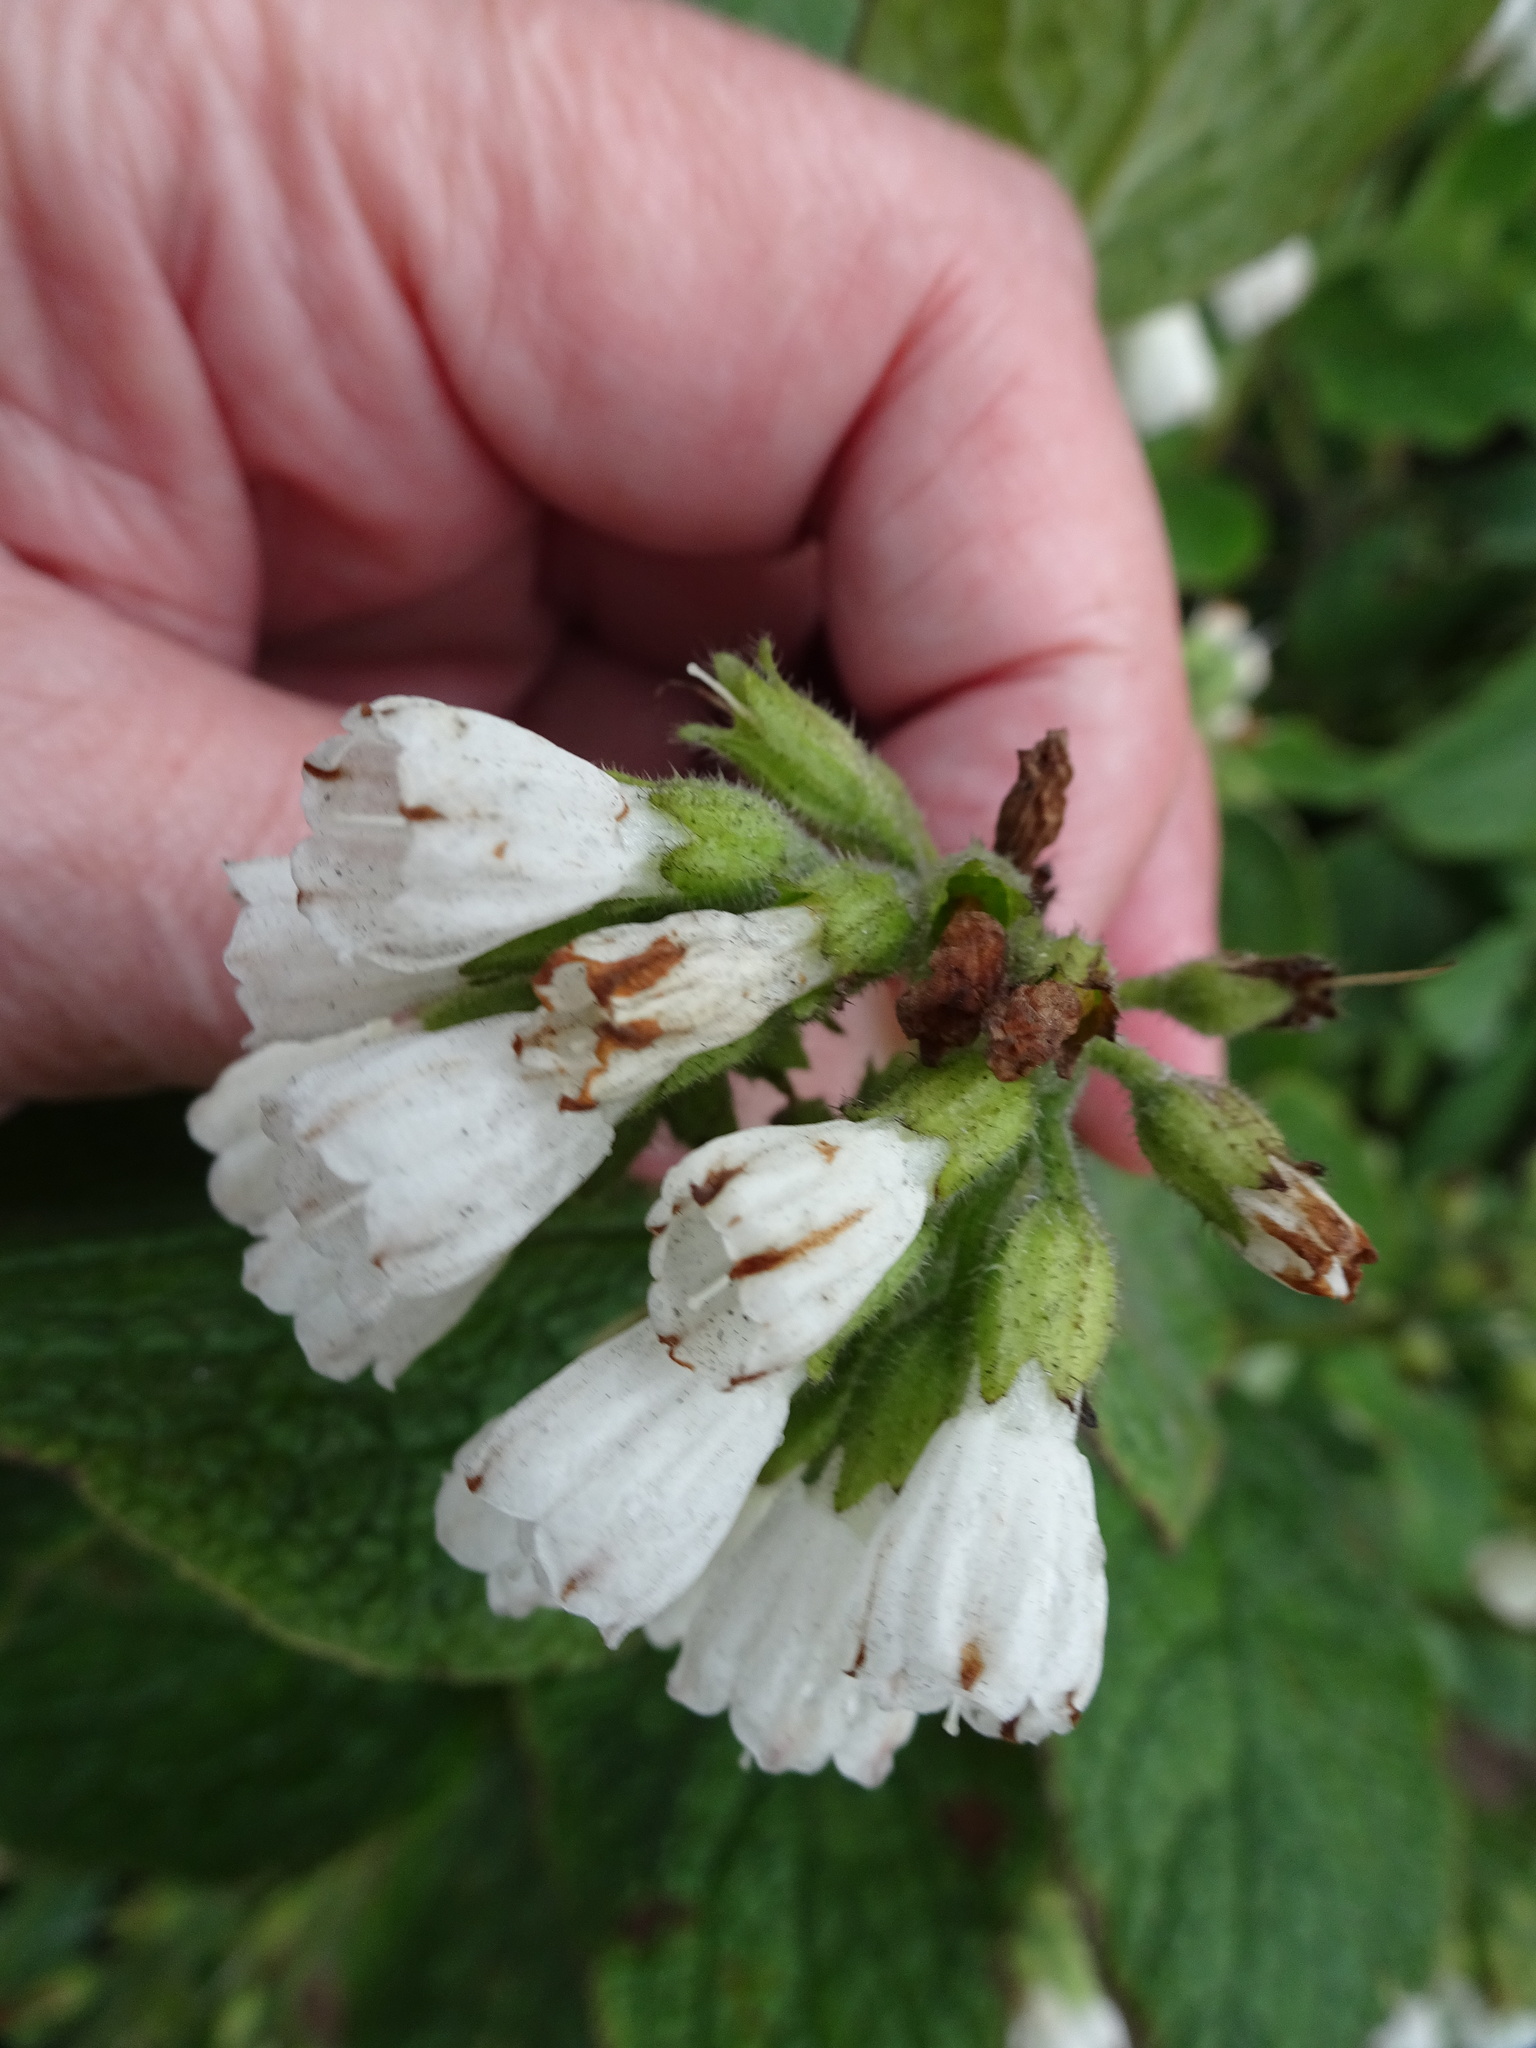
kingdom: Plantae
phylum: Tracheophyta
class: Magnoliopsida
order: Boraginales
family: Boraginaceae
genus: Symphytum
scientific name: Symphytum orientale
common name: White comfrey
